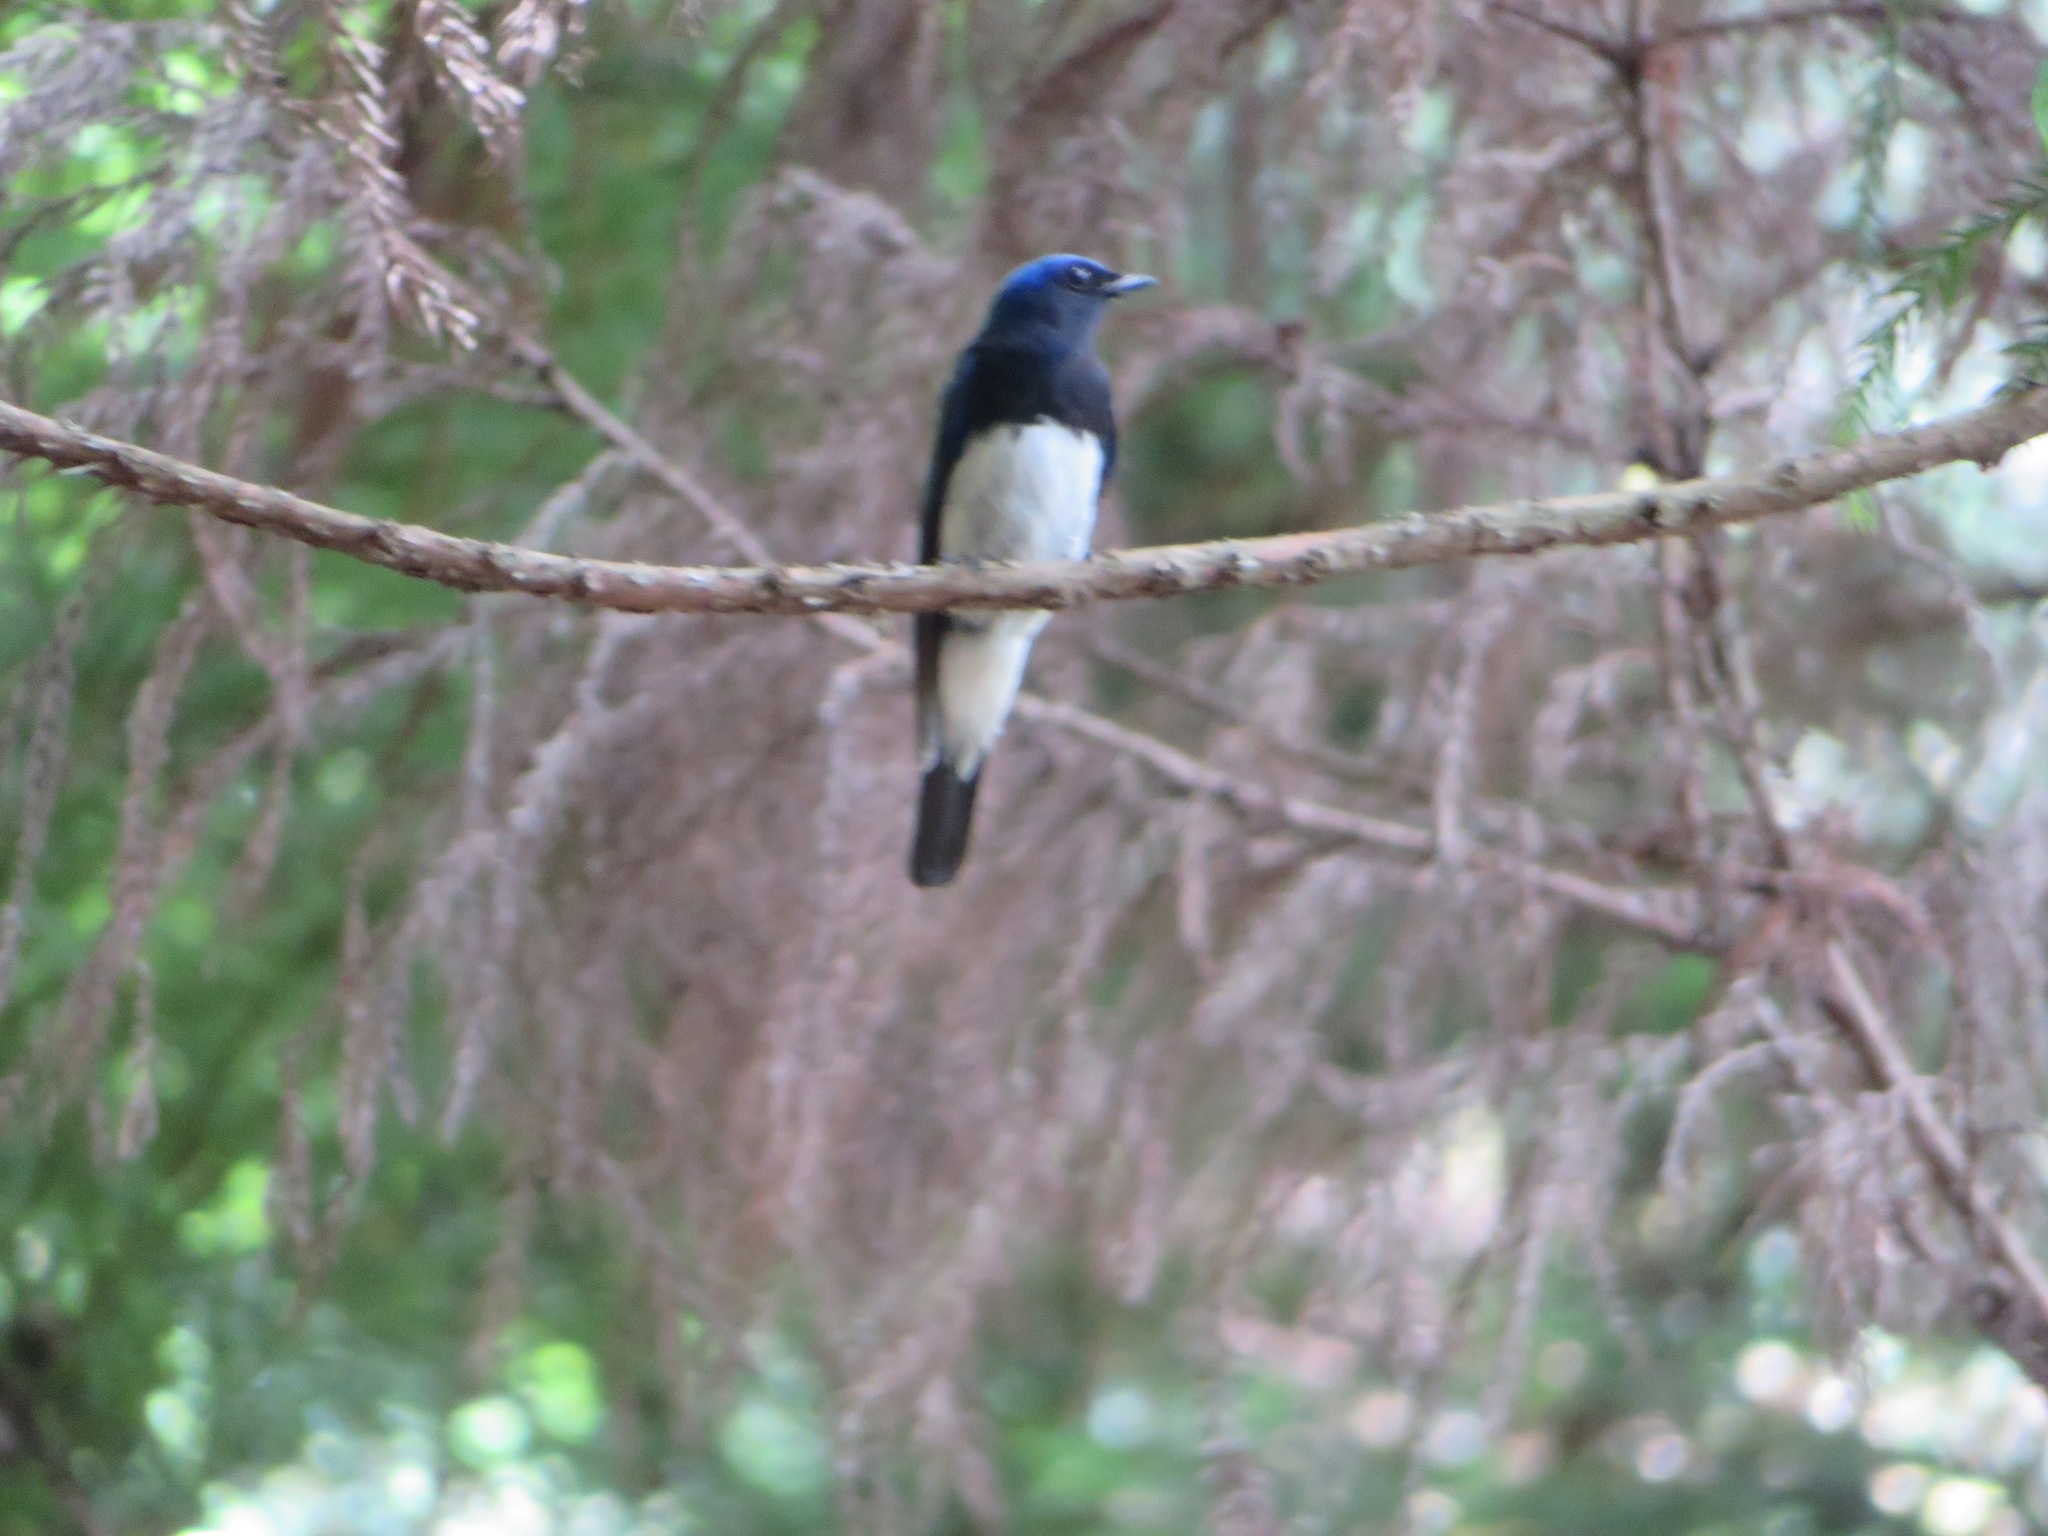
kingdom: Animalia
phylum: Chordata
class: Aves
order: Passeriformes
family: Muscicapidae
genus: Cyanoptila
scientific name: Cyanoptila cyanomelana
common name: Blue-and-white flycatcher
